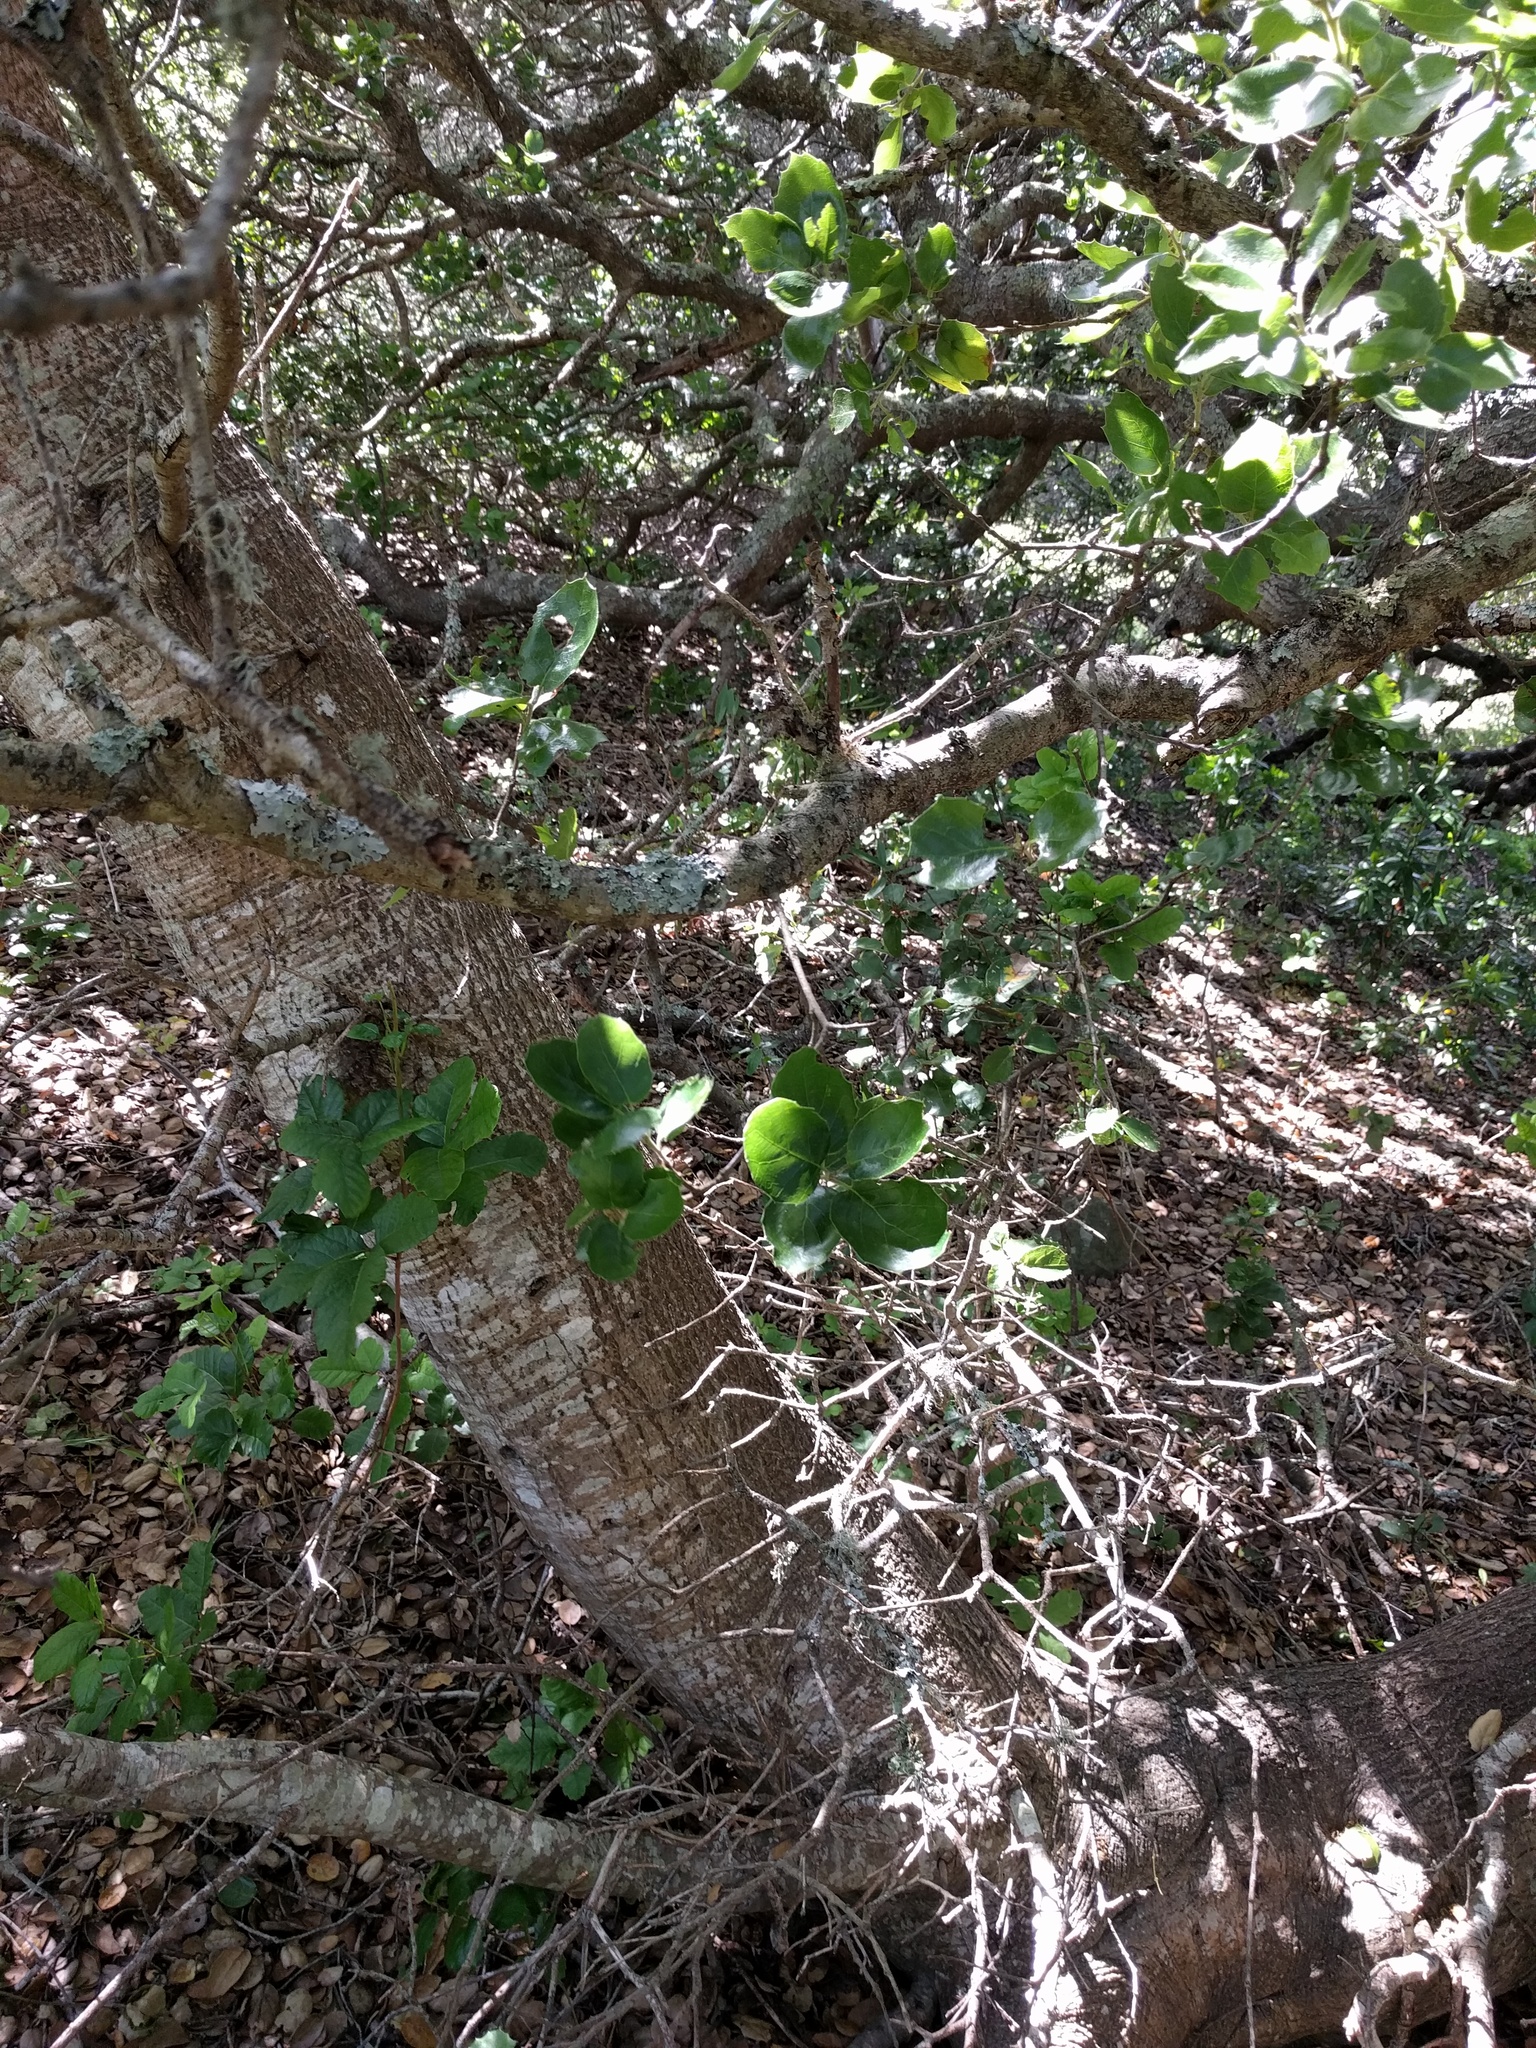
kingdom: Plantae
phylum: Tracheophyta
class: Magnoliopsida
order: Fagales
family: Fagaceae
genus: Quercus
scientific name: Quercus agrifolia
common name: California live oak
